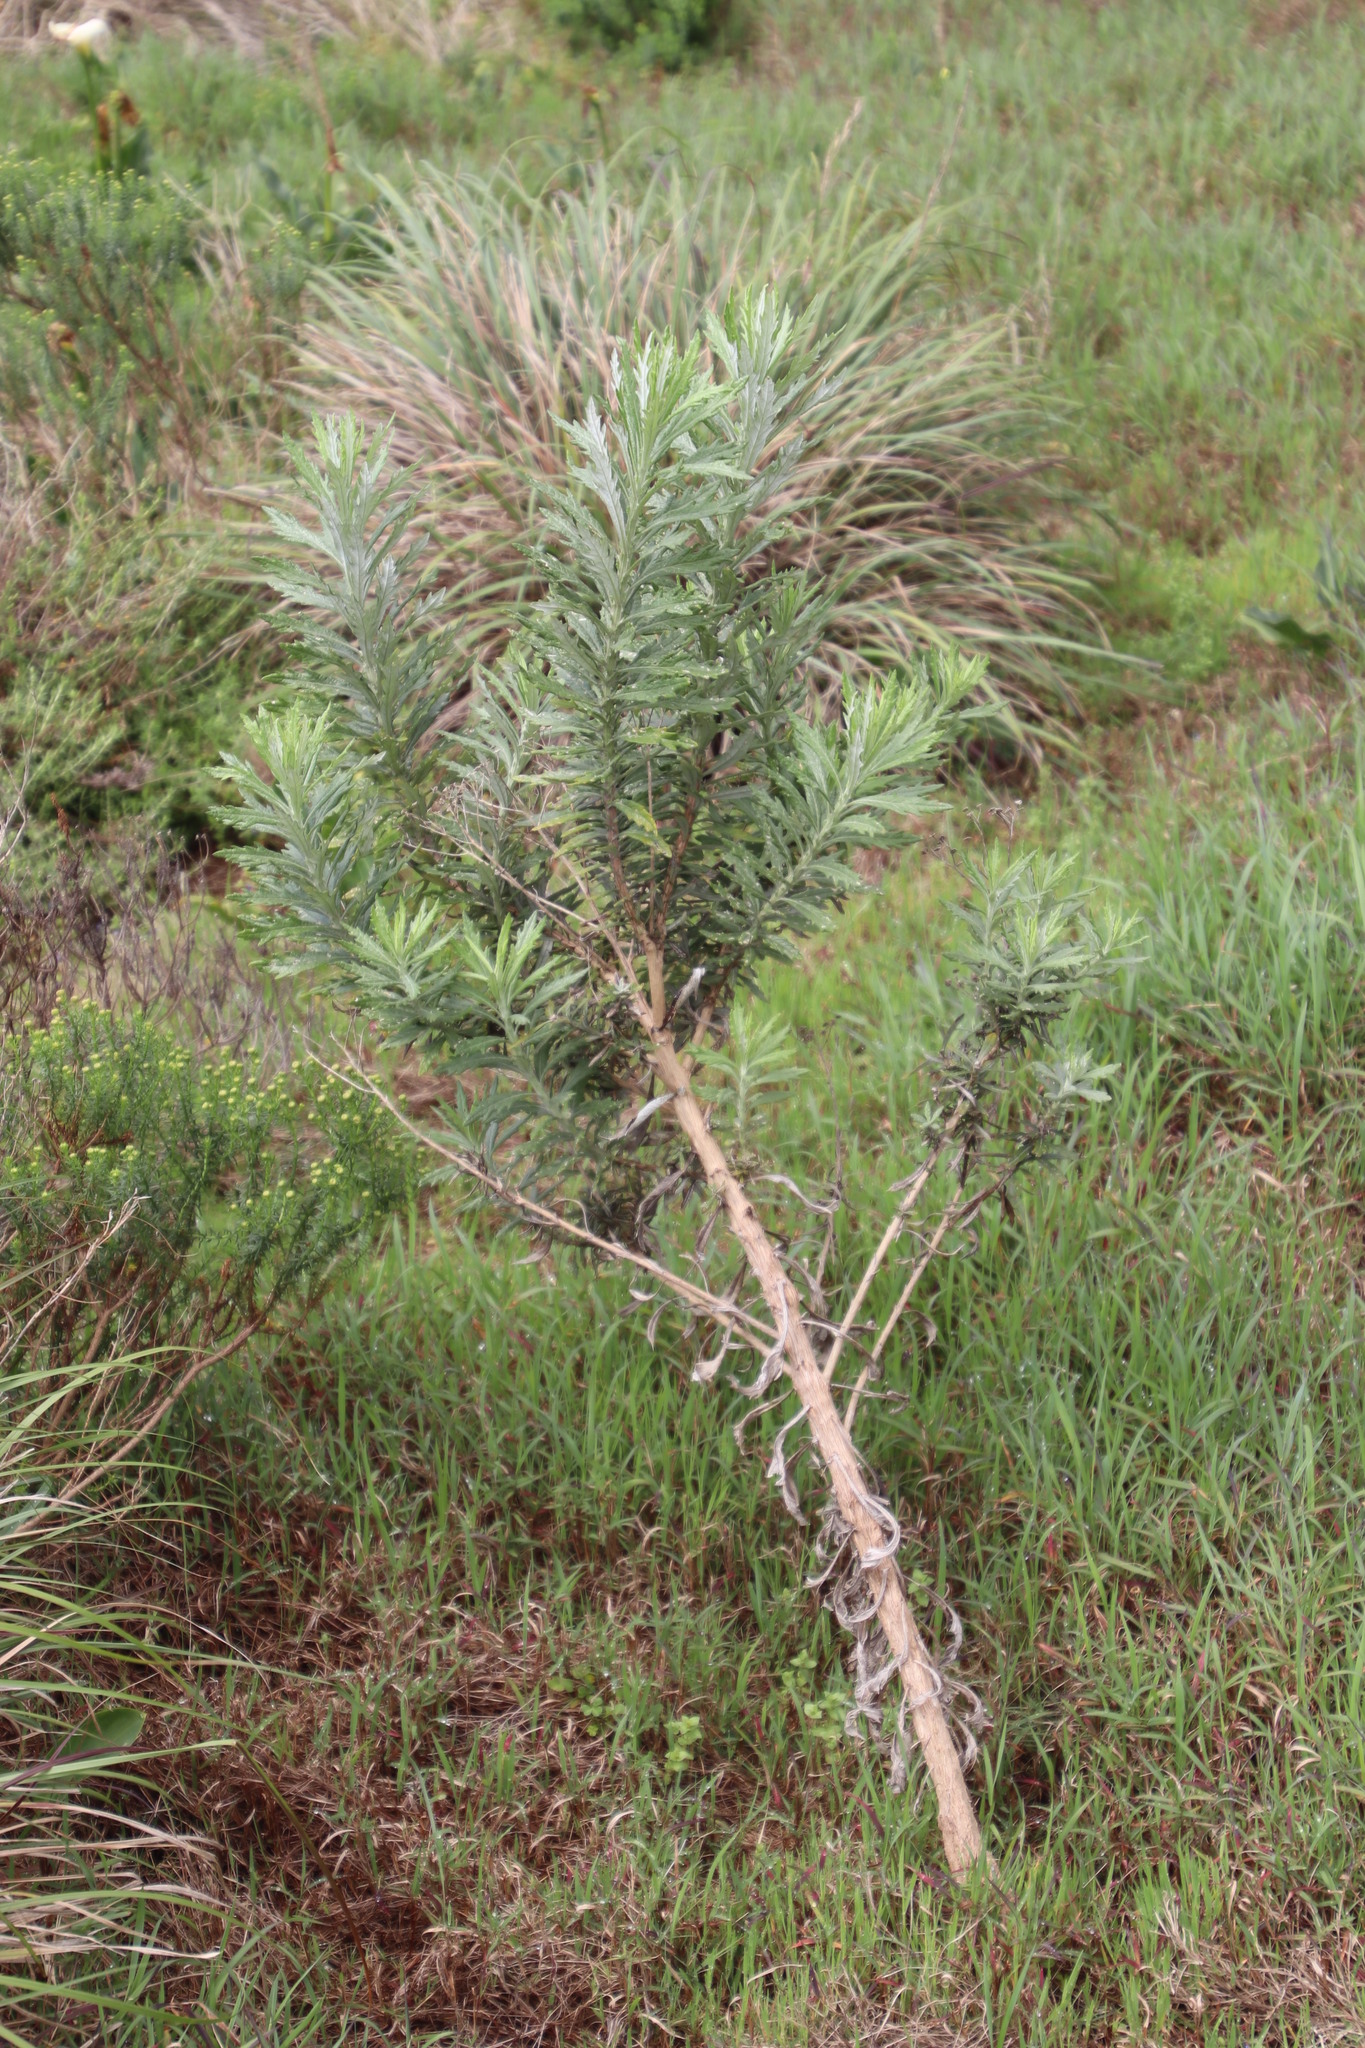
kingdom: Plantae
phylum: Tracheophyta
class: Magnoliopsida
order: Asterales
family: Asteraceae
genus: Senecio
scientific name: Senecio pterophorus
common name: Shoddy ragwort
